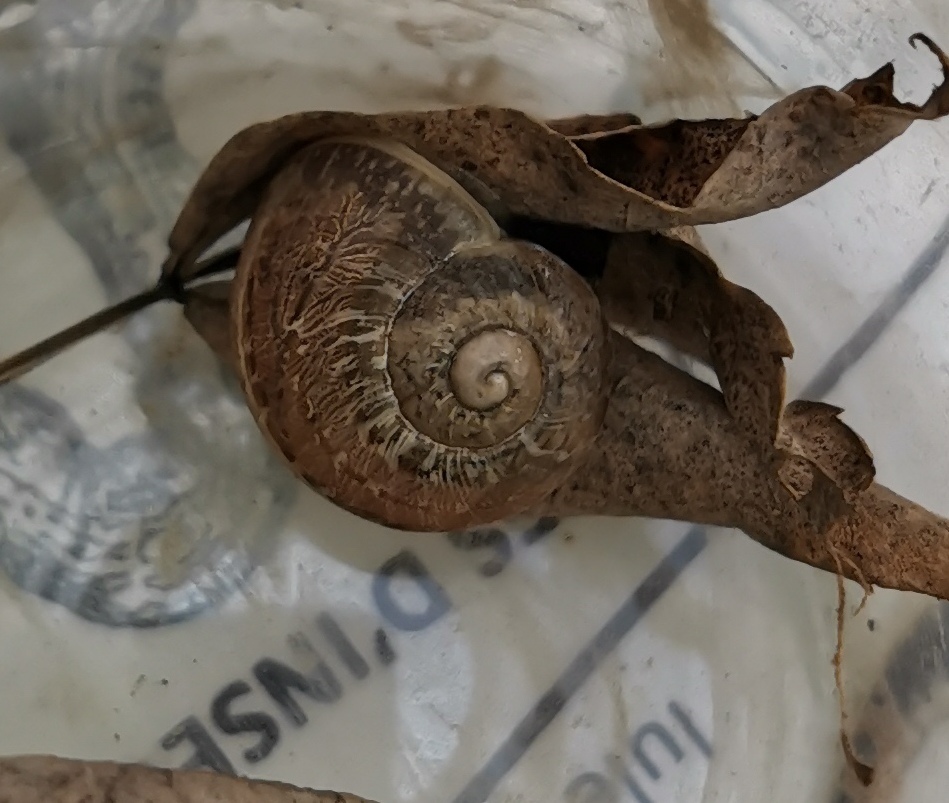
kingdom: Animalia
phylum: Mollusca
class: Gastropoda
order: Stylommatophora
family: Helicidae
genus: Cornu
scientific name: Cornu aspersum
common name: Brown garden snail
